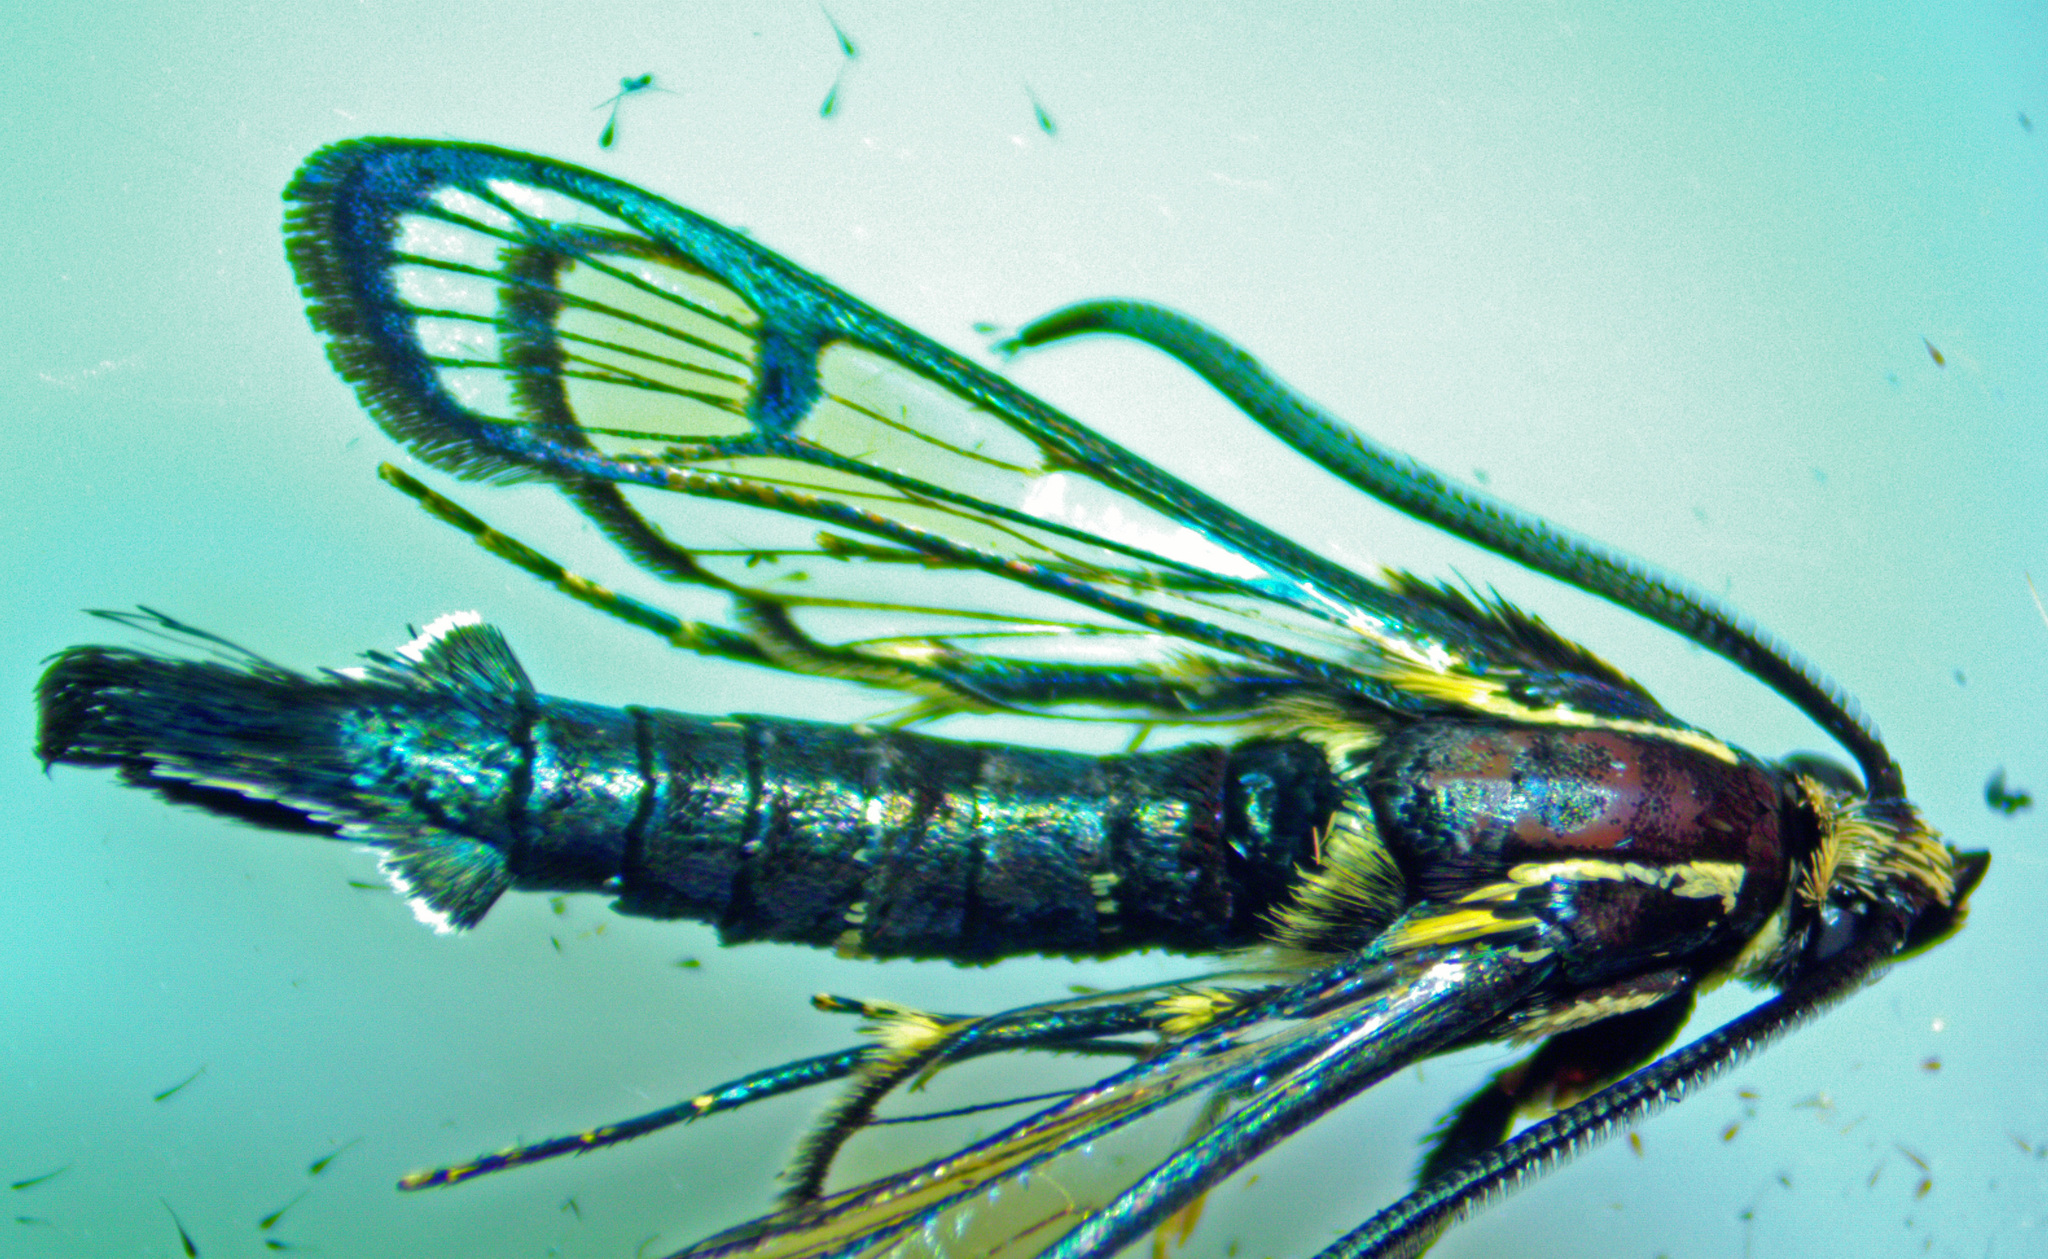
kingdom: Animalia
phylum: Arthropoda
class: Insecta
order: Lepidoptera
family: Sesiidae
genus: Synanthedon
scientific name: Synanthedon exitiosa
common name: Peachtree borer moth
